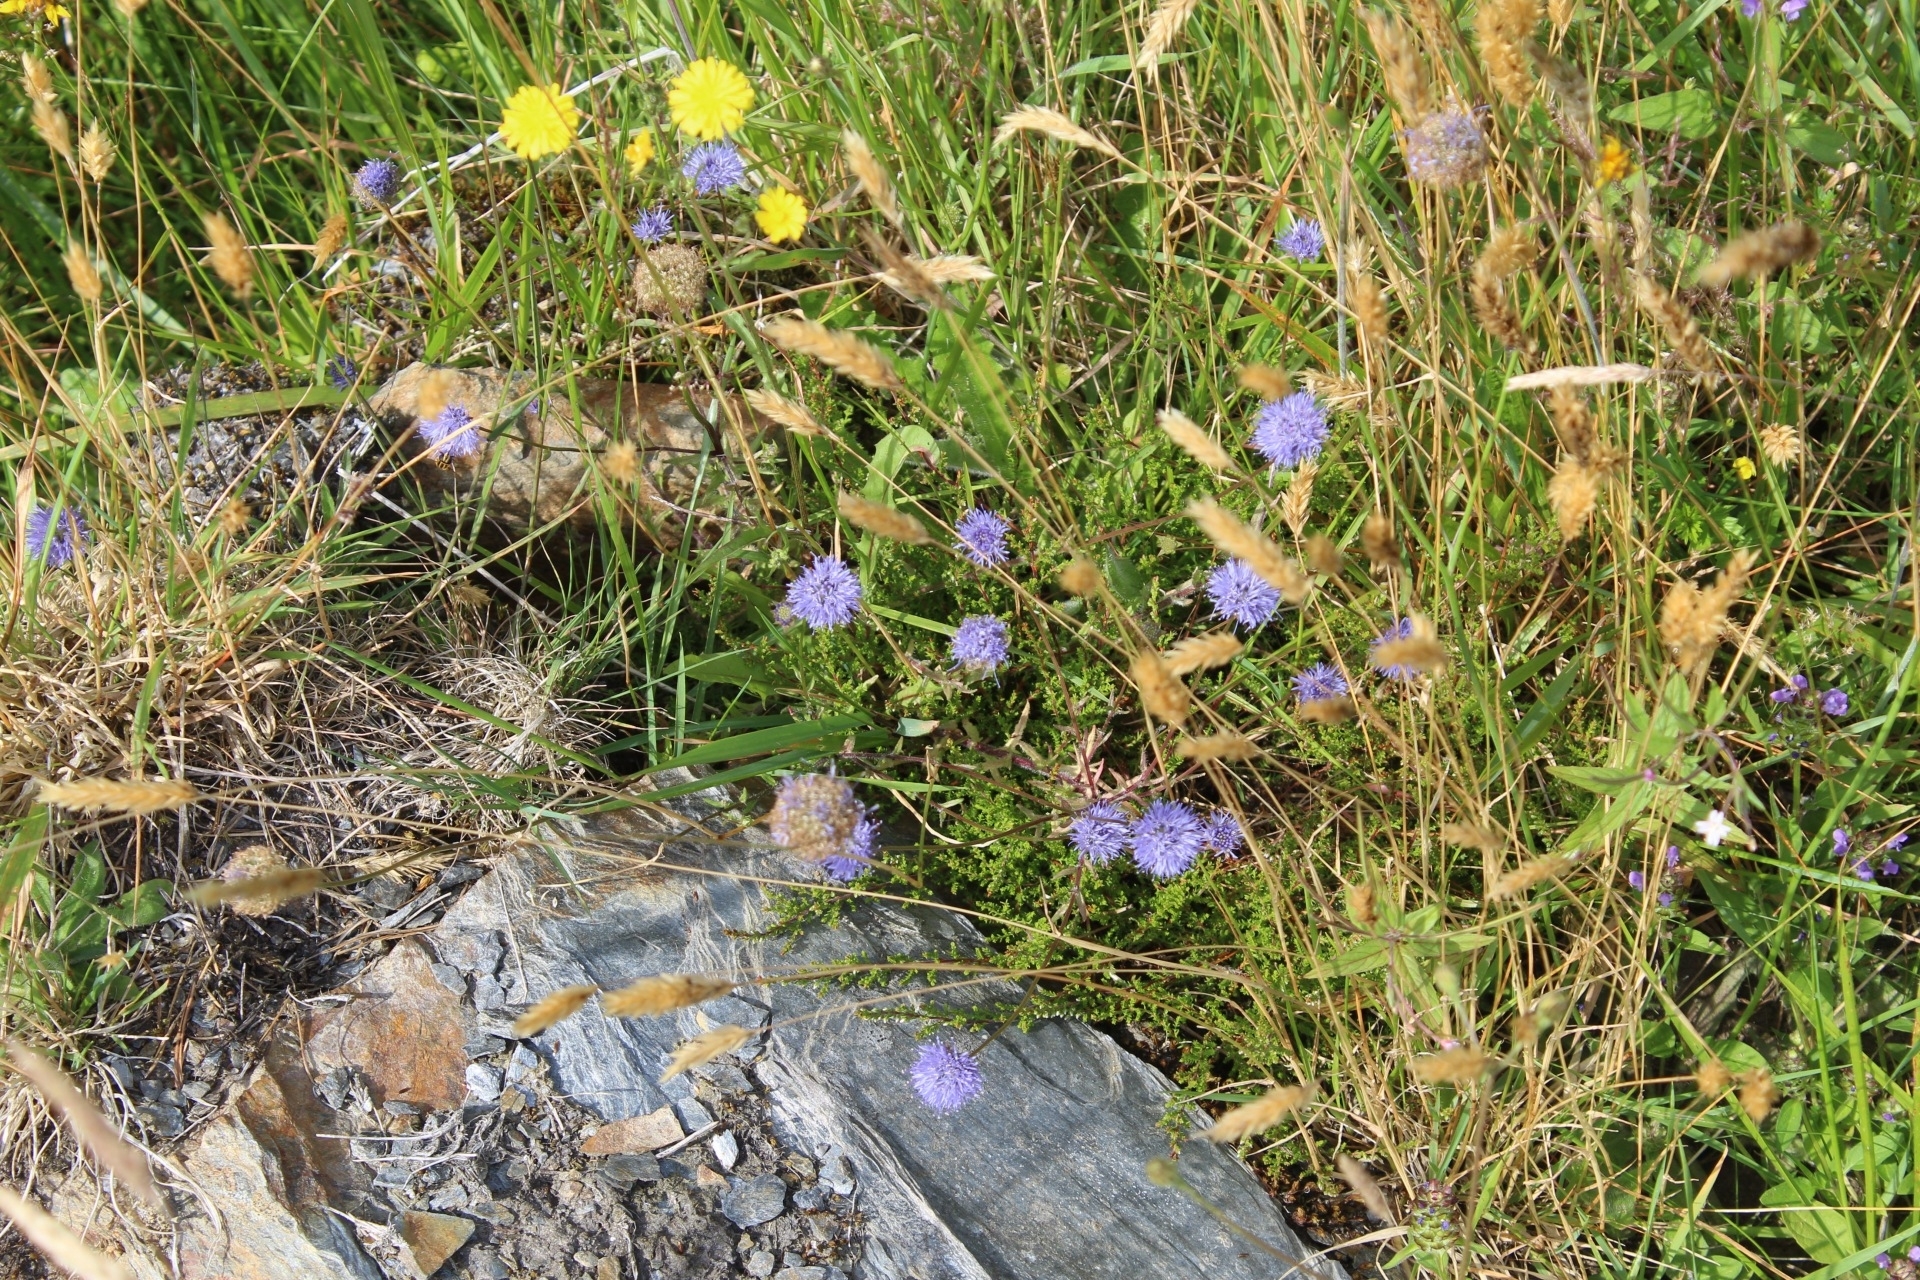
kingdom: Plantae
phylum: Tracheophyta
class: Magnoliopsida
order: Dipsacales
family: Caprifoliaceae
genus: Succisa
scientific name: Succisa pratensis
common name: Devil's-bit
